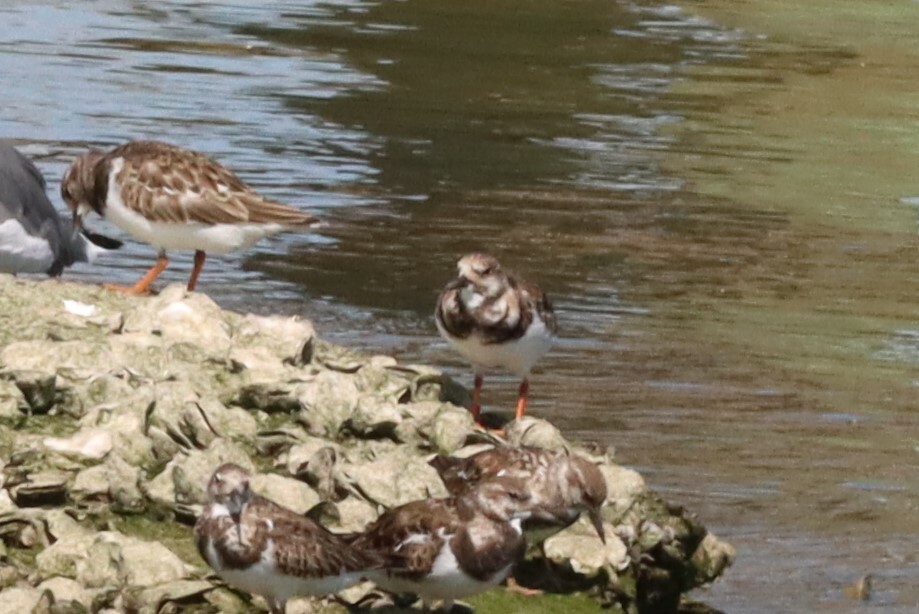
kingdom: Animalia
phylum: Chordata
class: Aves
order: Charadriiformes
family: Scolopacidae
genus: Arenaria
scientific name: Arenaria interpres
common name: Ruddy turnstone
